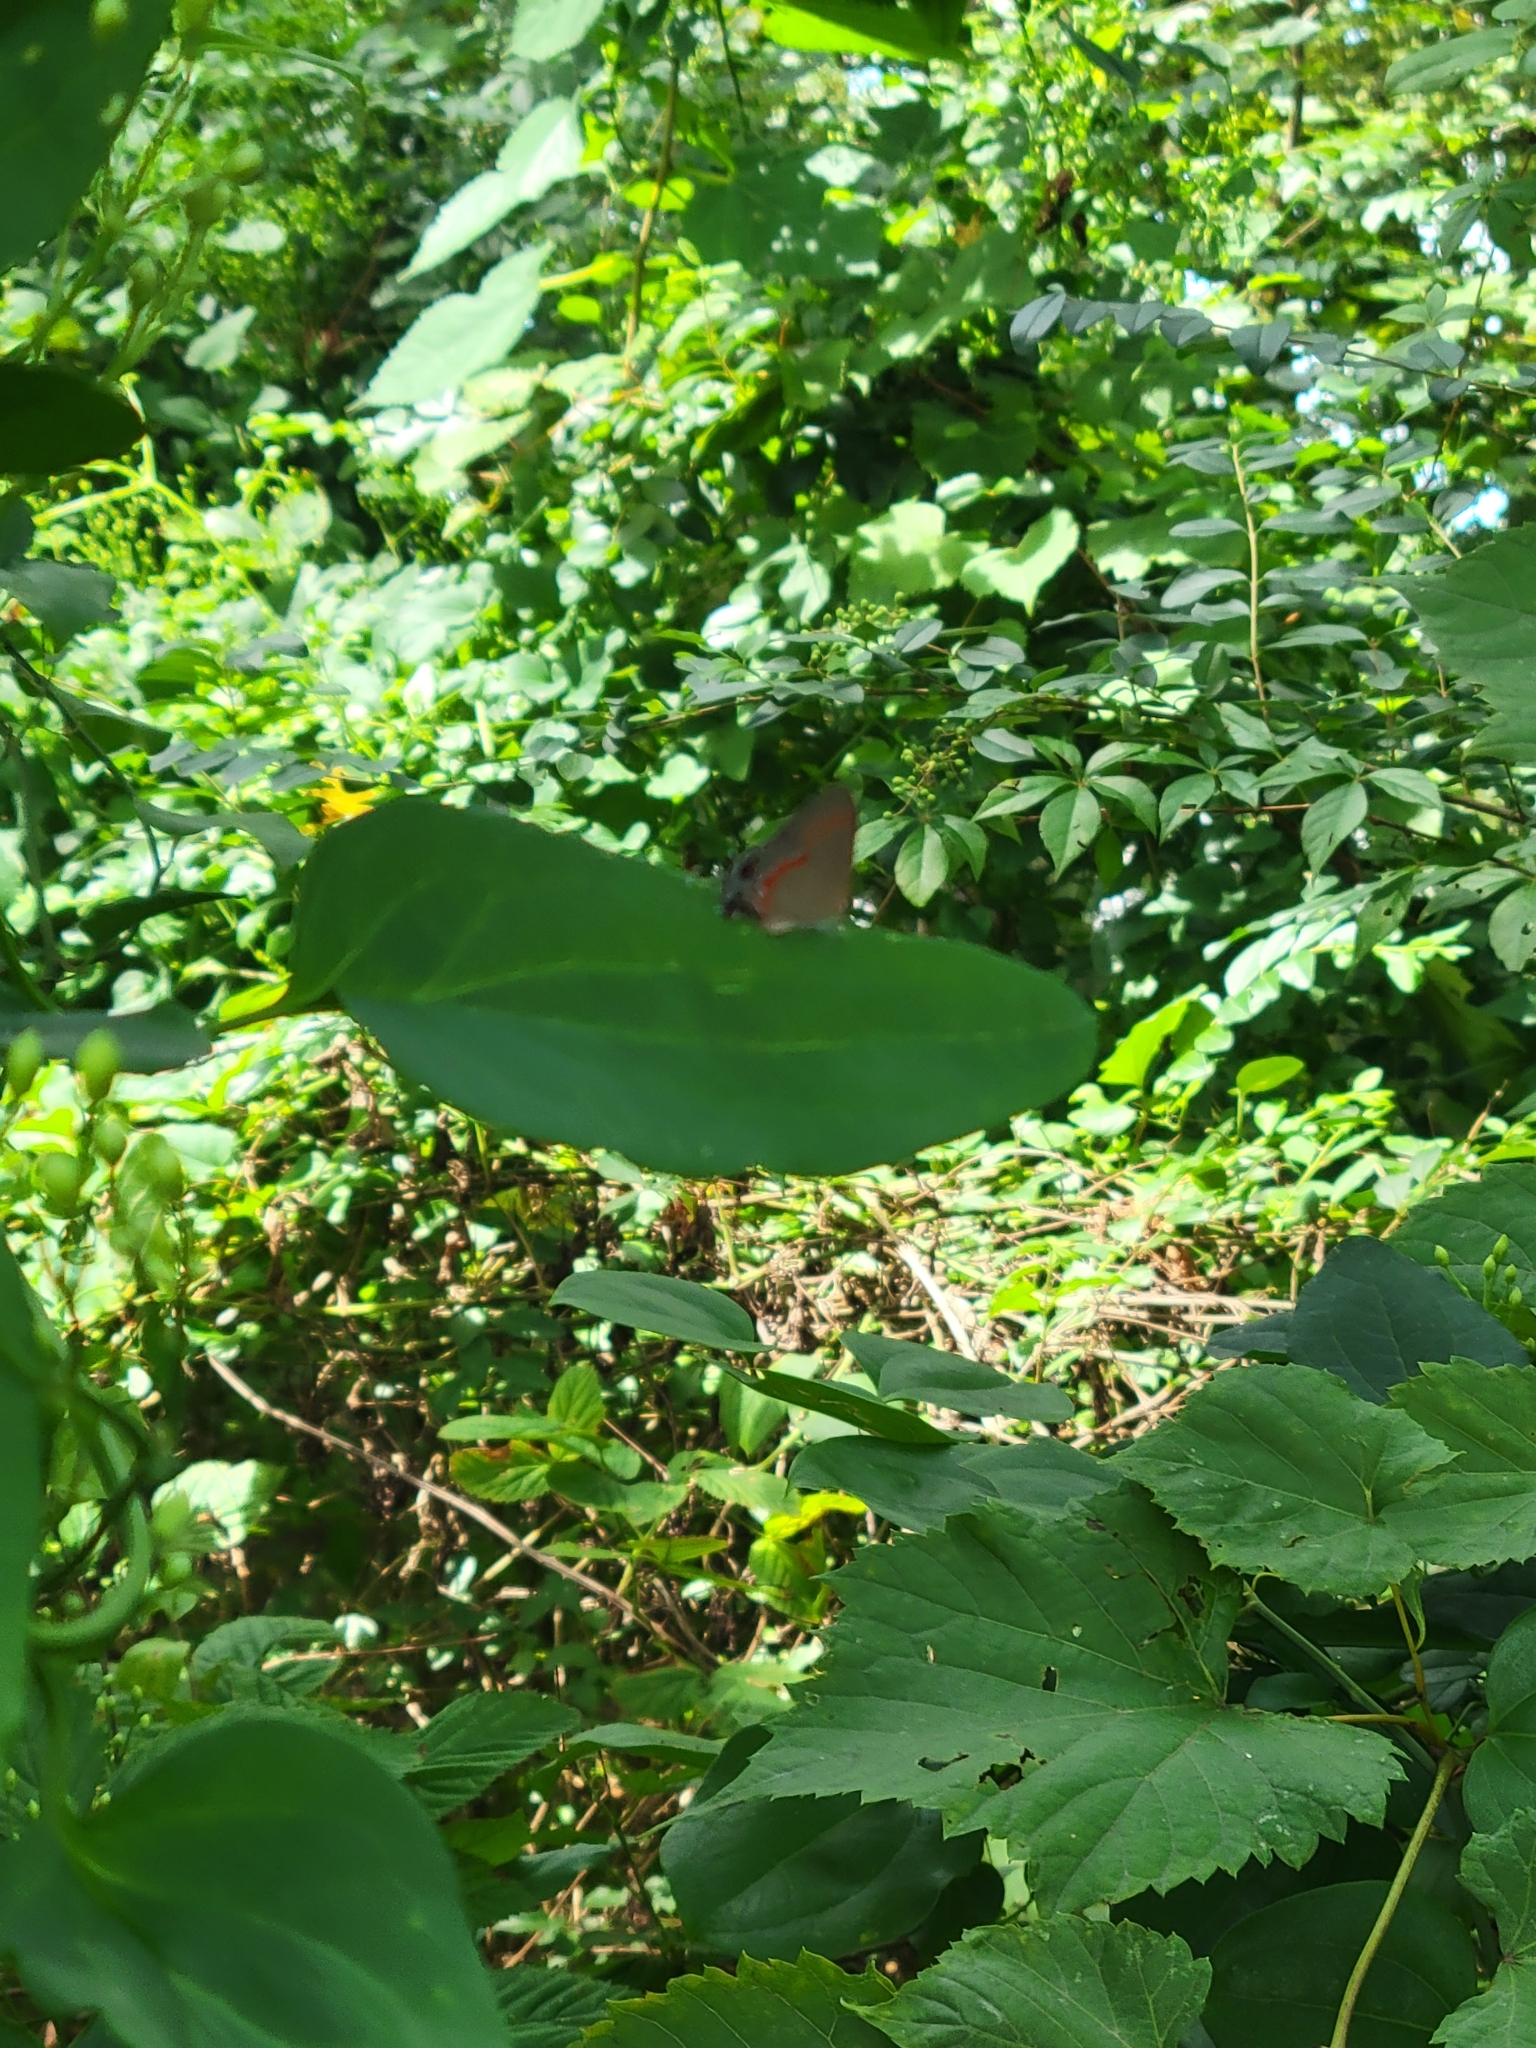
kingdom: Animalia
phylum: Arthropoda
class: Insecta
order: Lepidoptera
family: Lycaenidae
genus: Calycopis
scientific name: Calycopis cecrops
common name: Red-banded hairstreak
